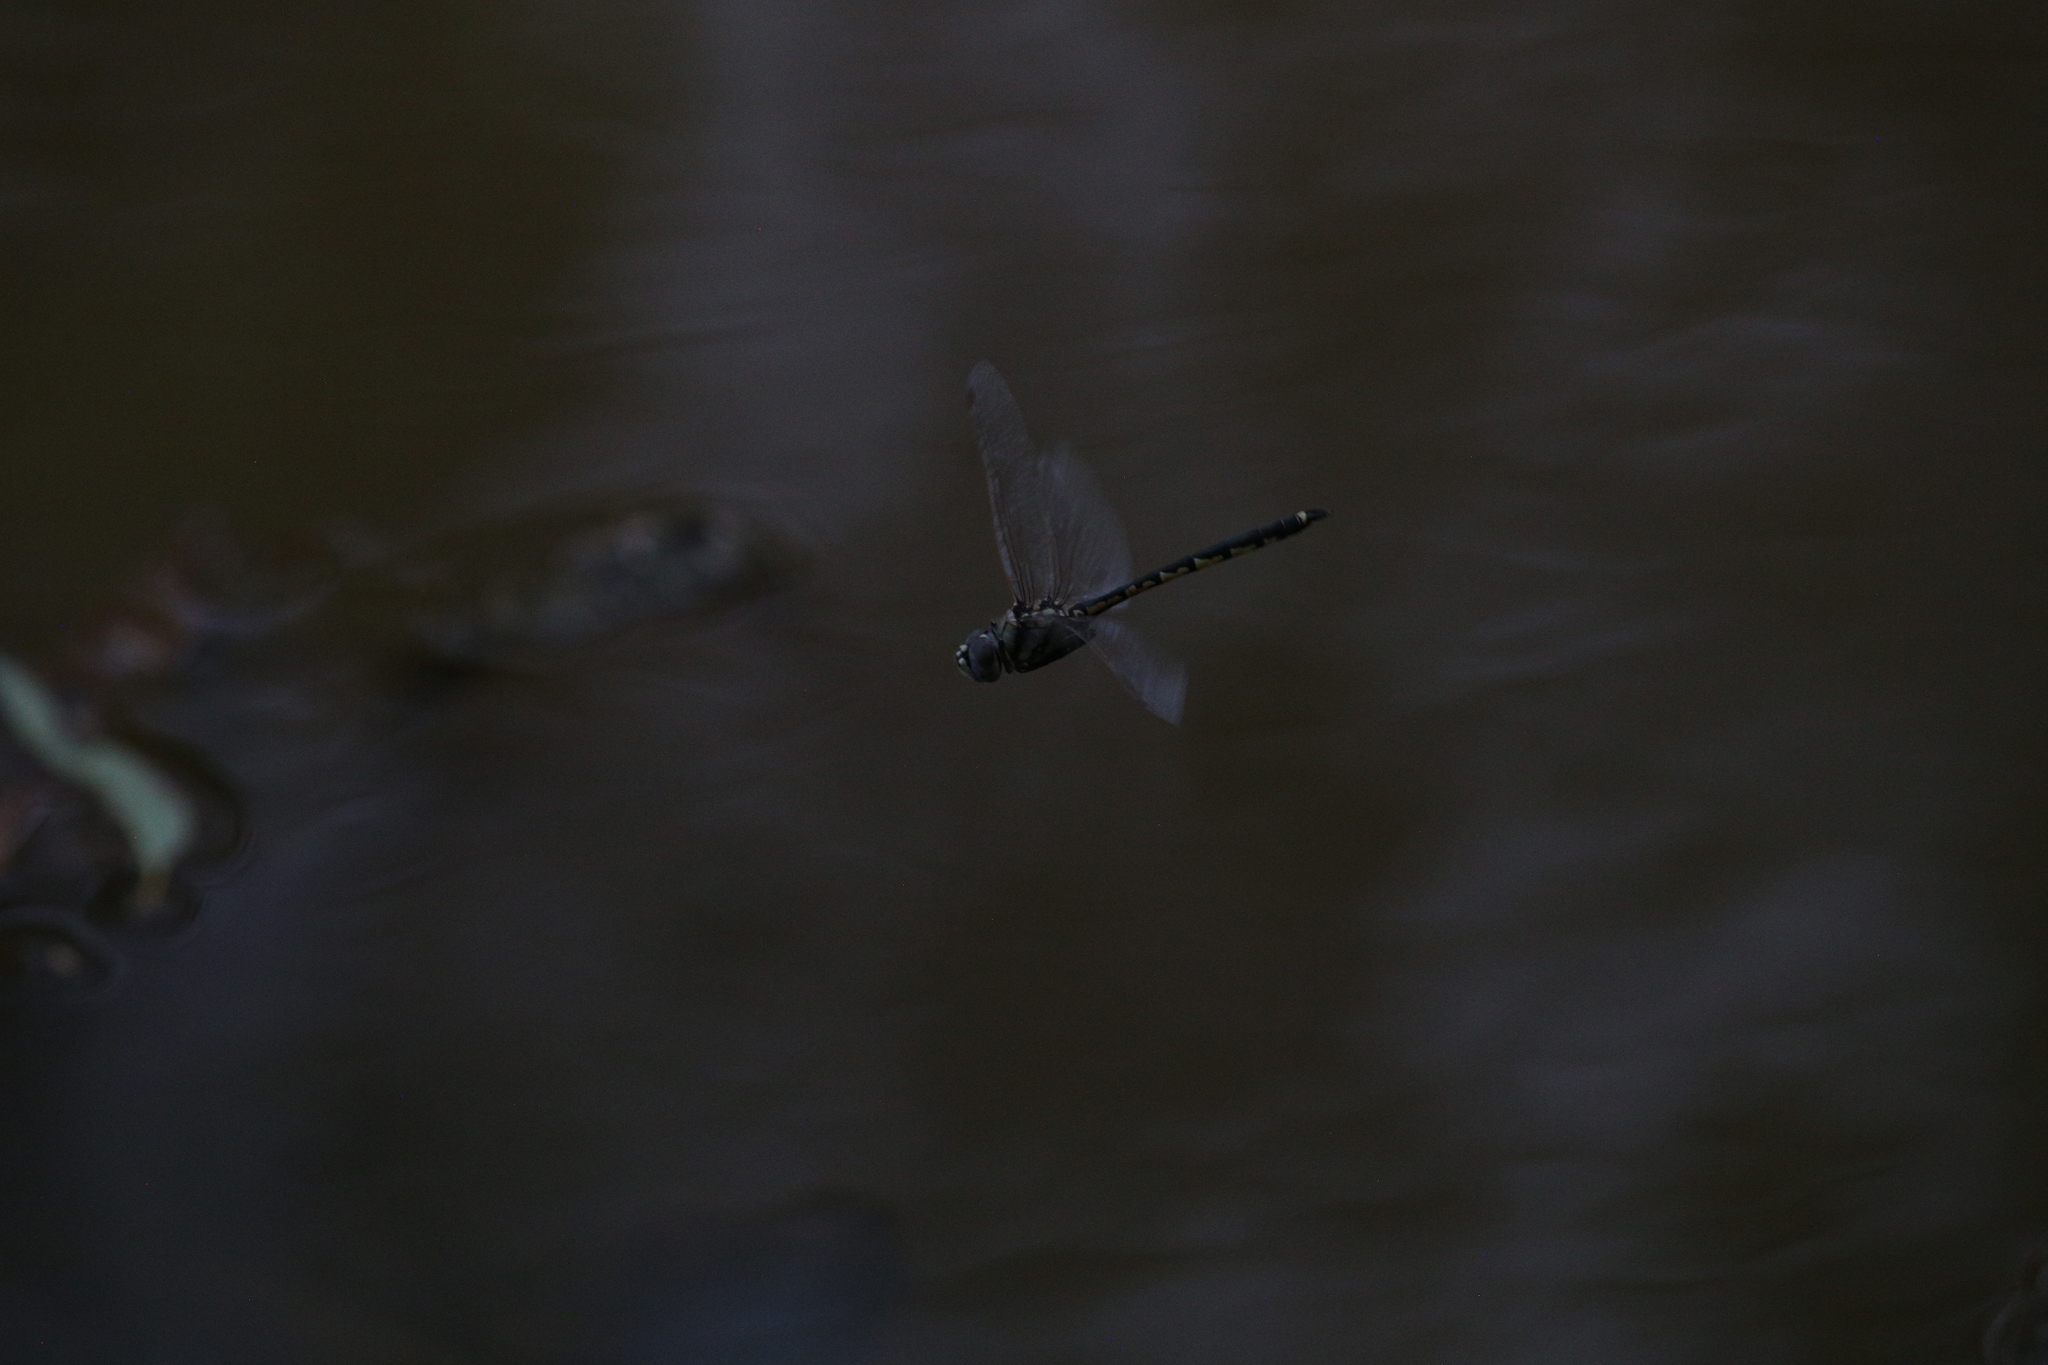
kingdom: Animalia
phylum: Arthropoda
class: Insecta
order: Odonata
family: Corduliidae
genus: Hemicordulia
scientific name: Hemicordulia tau
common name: Tau emerald
